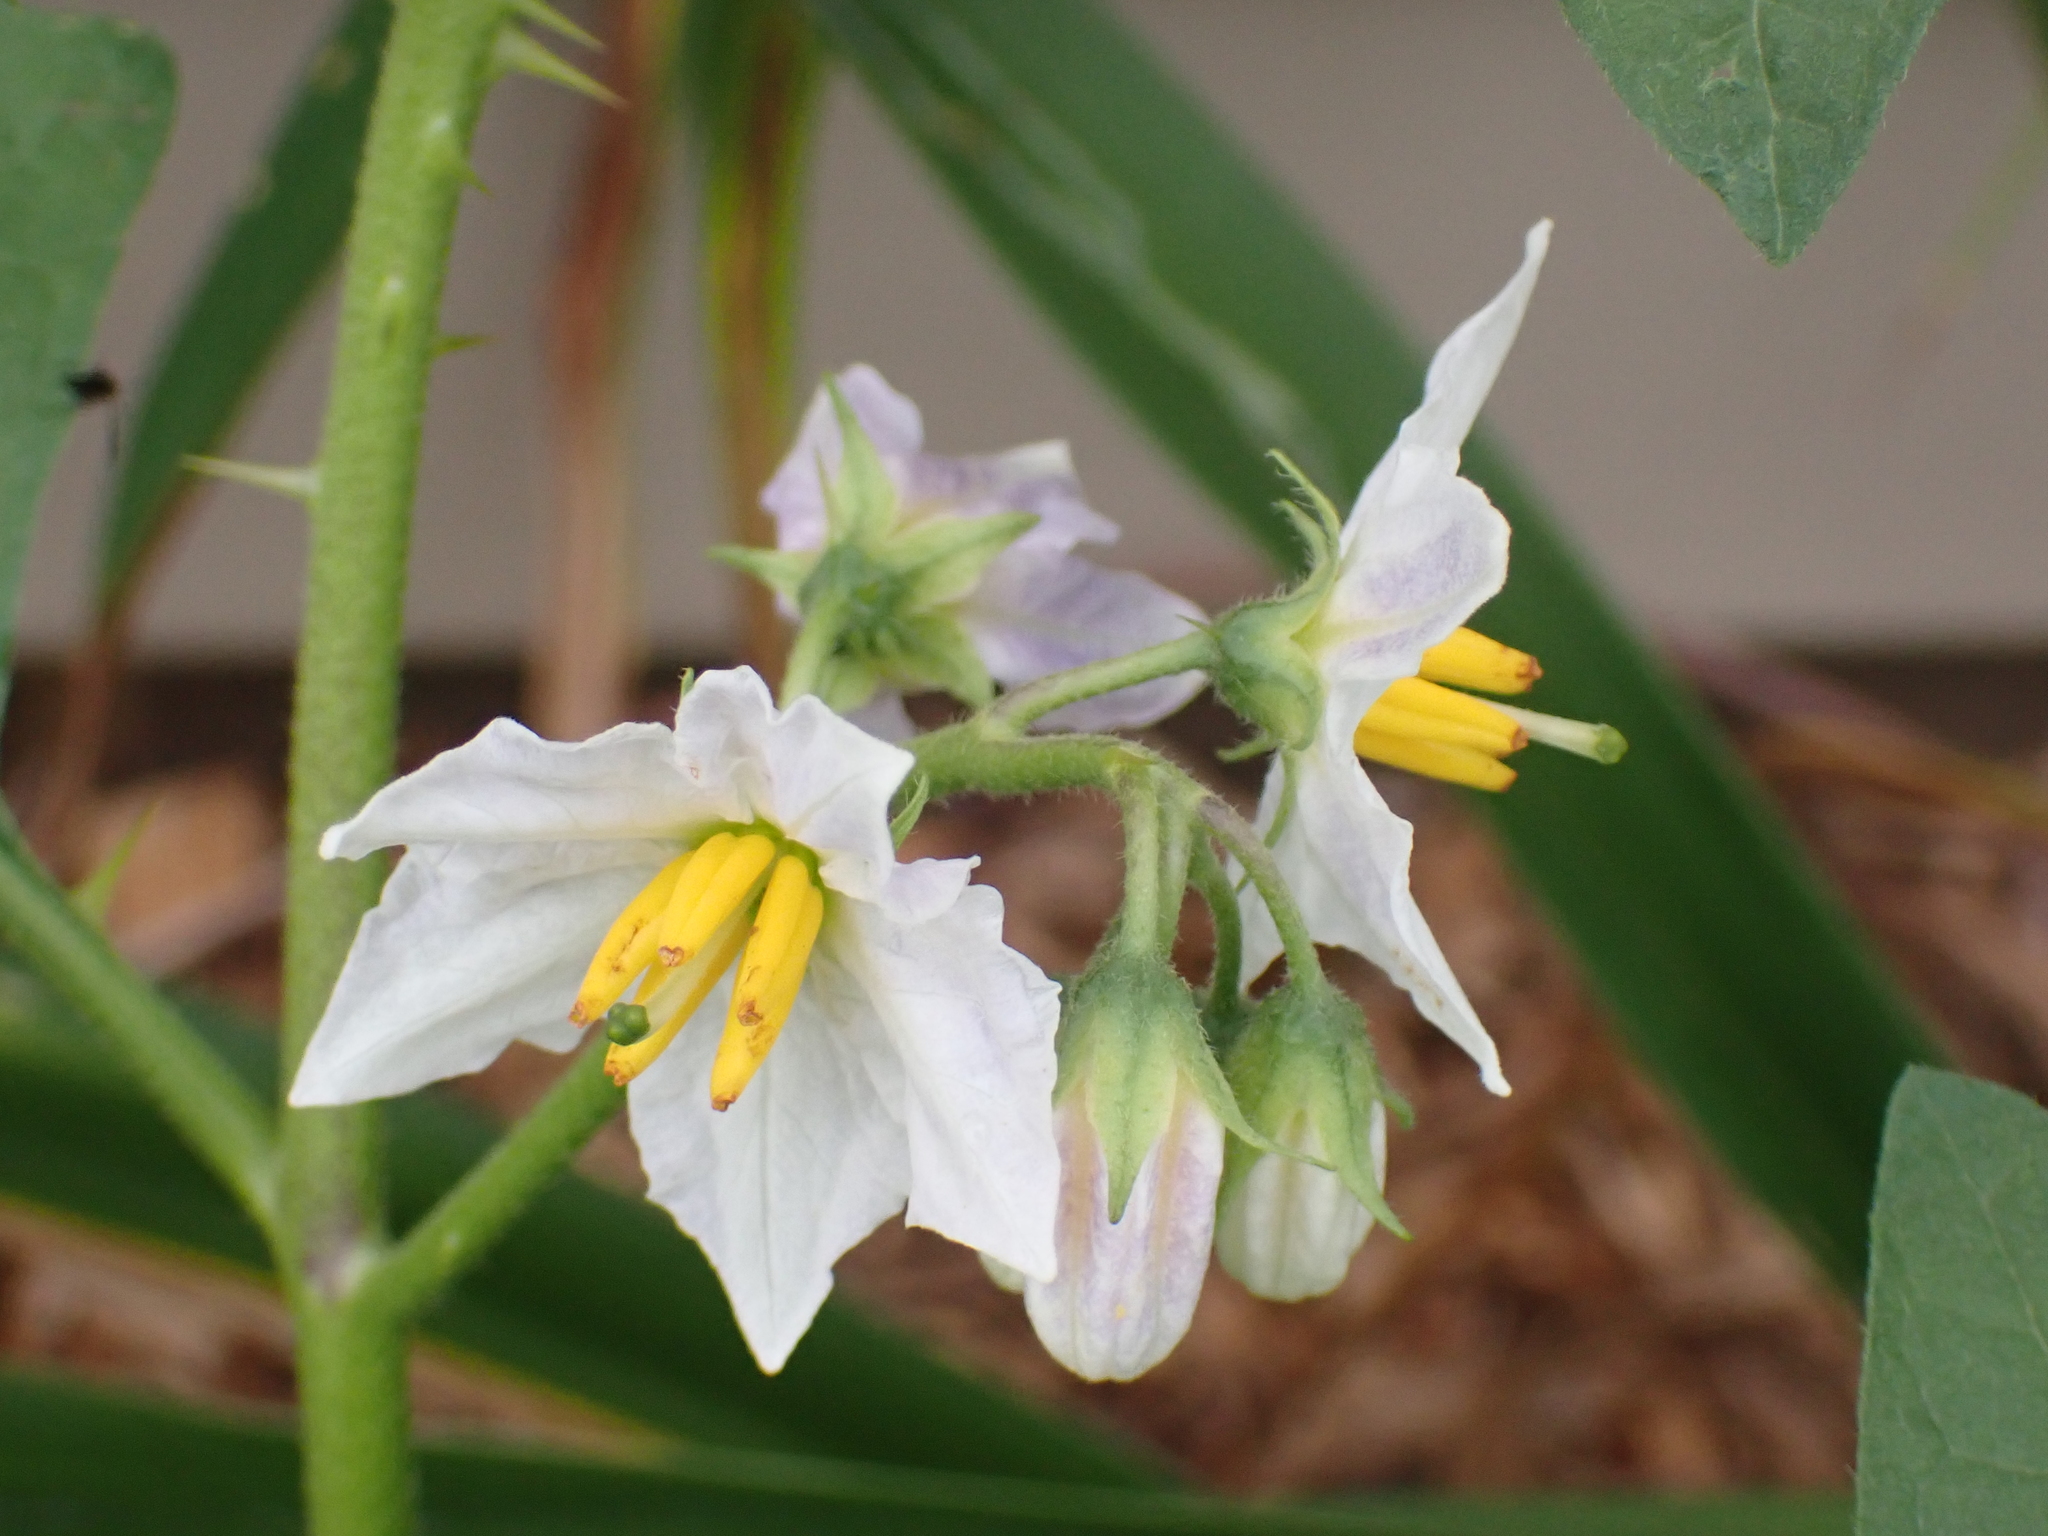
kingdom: Plantae
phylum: Tracheophyta
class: Magnoliopsida
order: Solanales
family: Solanaceae
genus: Solanum
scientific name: Solanum carolinense
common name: Horse-nettle
